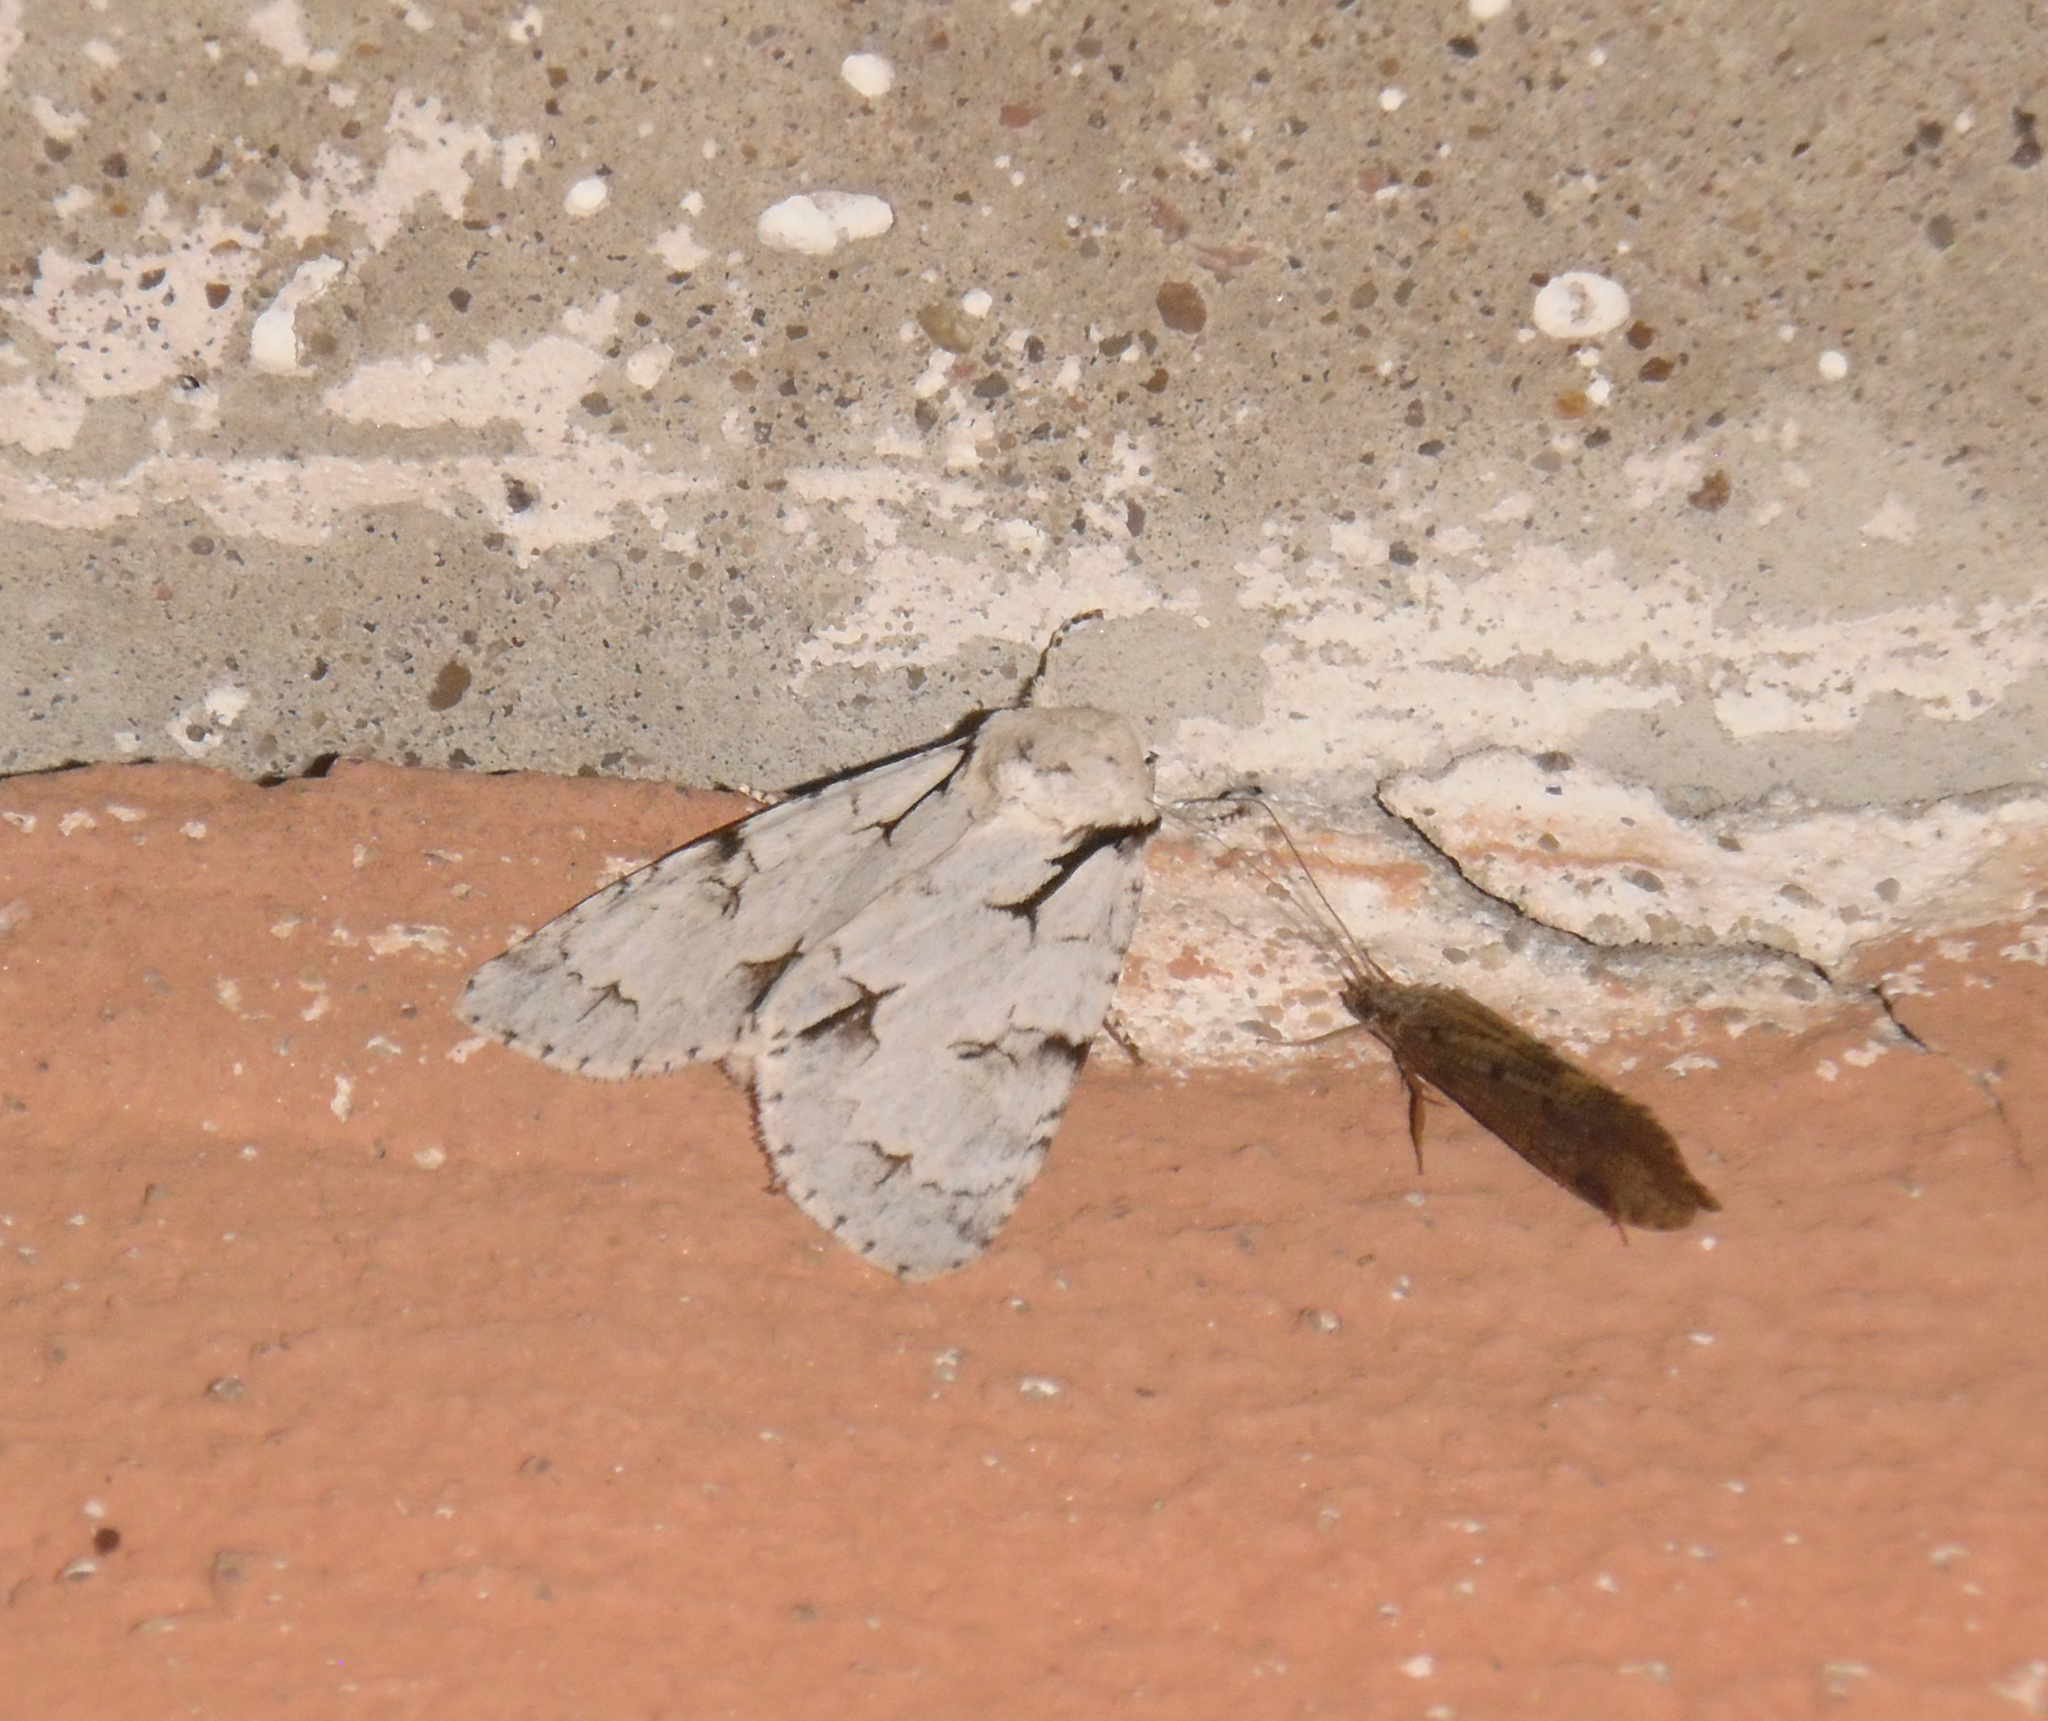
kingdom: Animalia
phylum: Arthropoda
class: Insecta
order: Lepidoptera
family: Noctuidae
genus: Acronicta
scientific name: Acronicta psi
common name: Grey dagger
